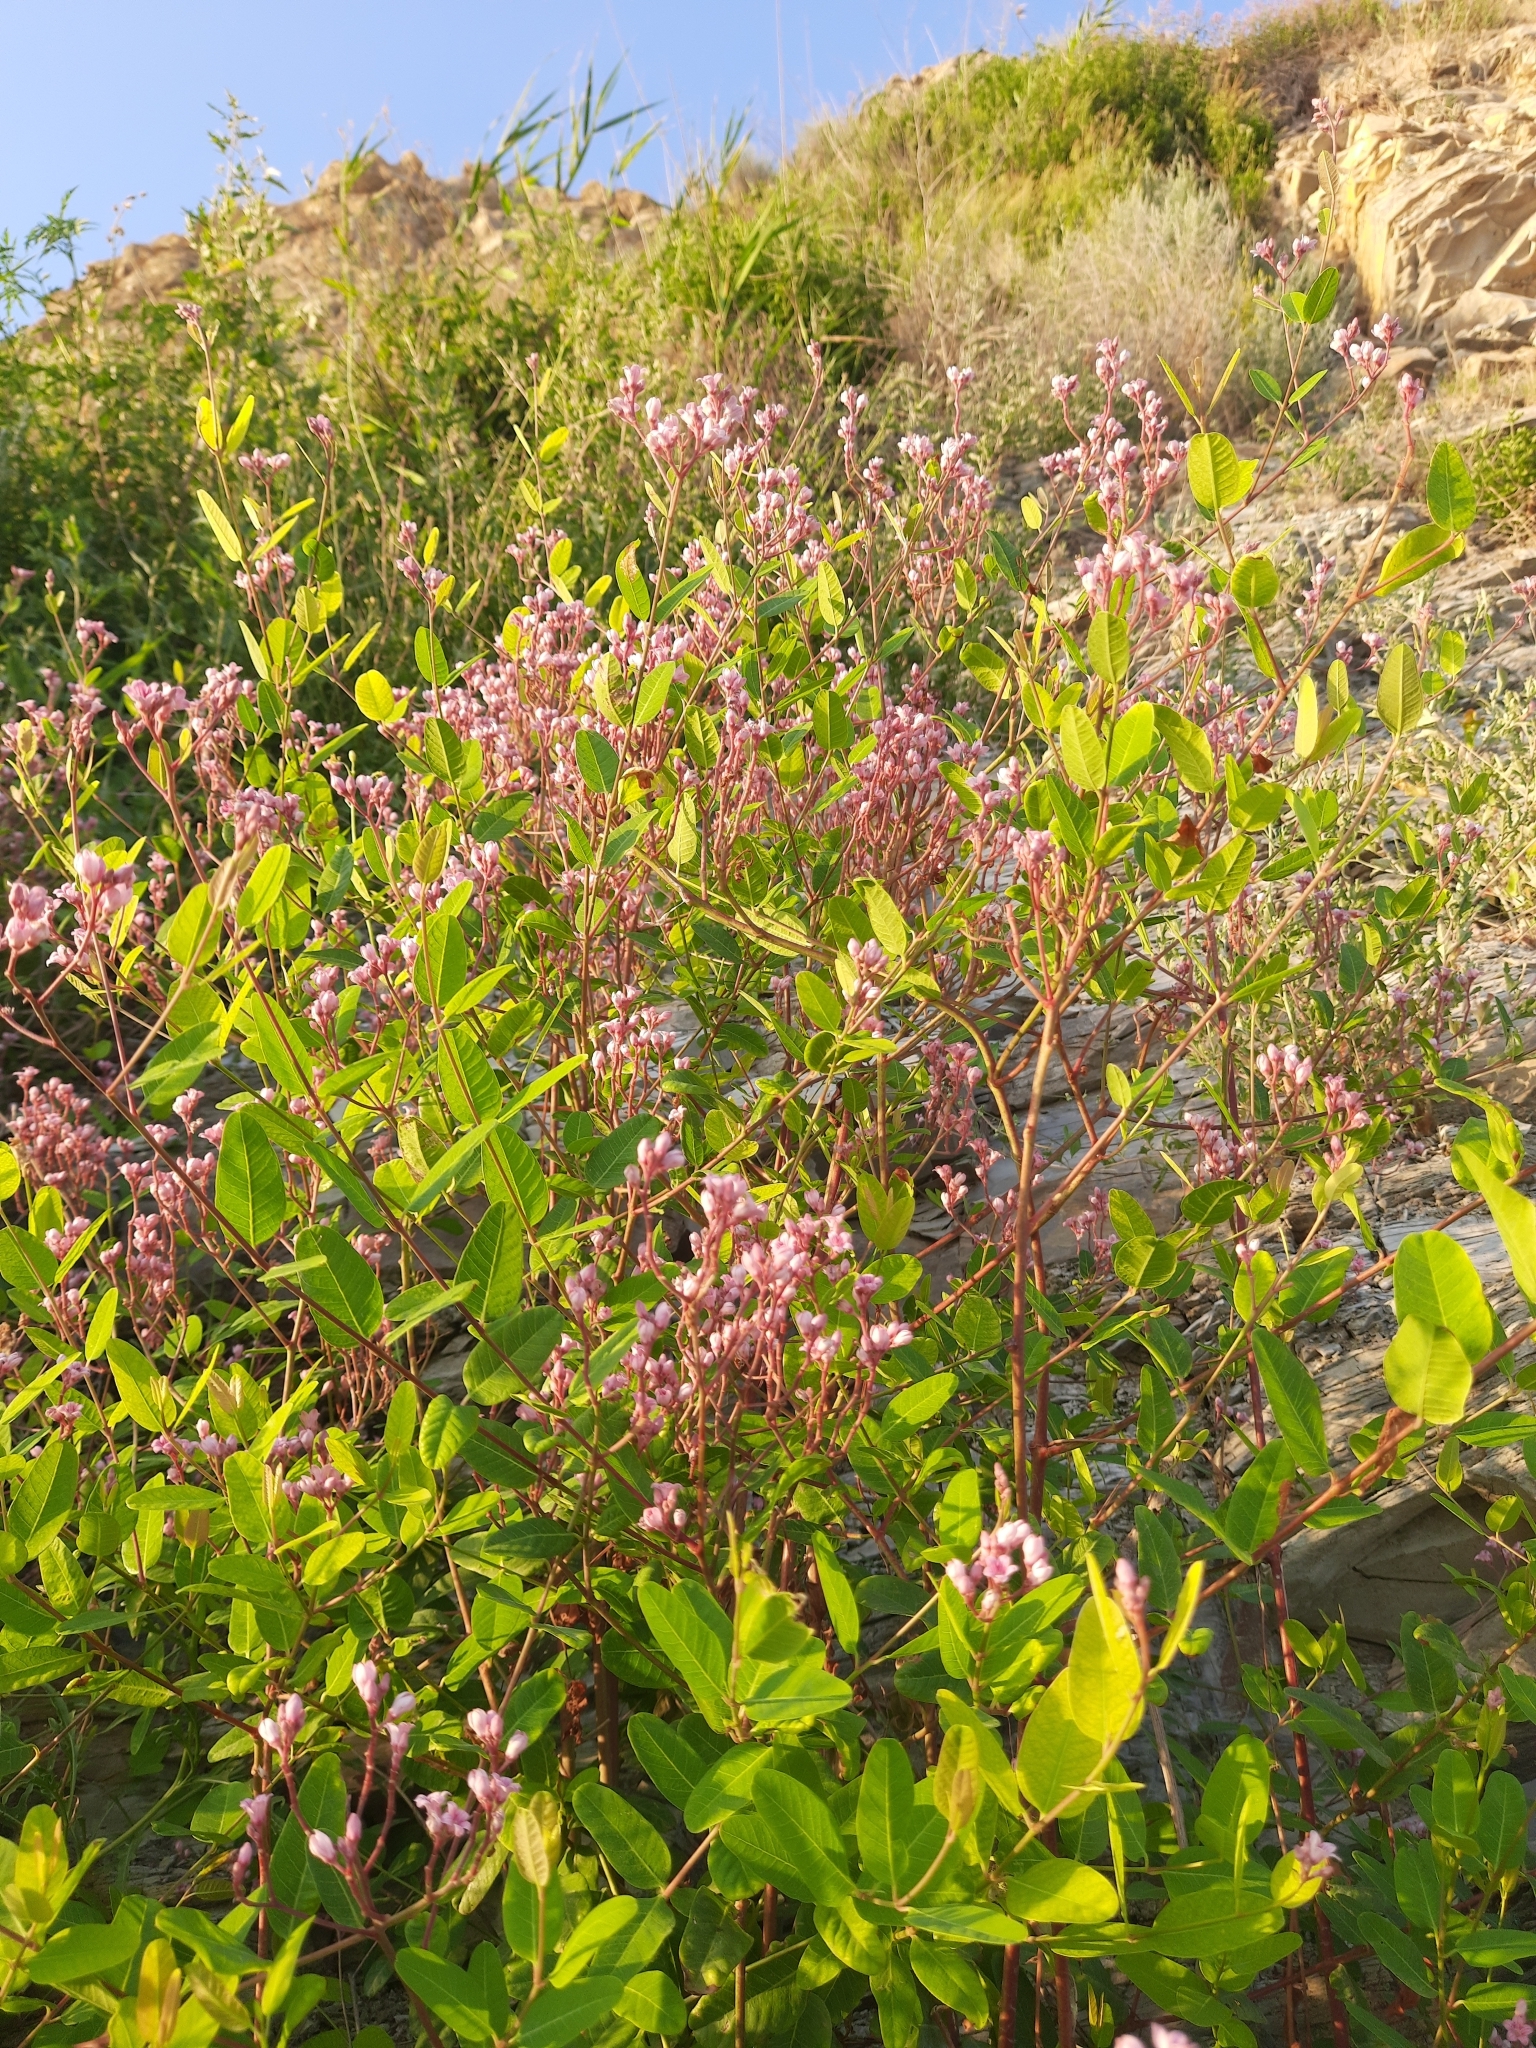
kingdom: Plantae
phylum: Tracheophyta
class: Magnoliopsida
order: Gentianales
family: Apocynaceae
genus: Poacynum
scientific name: Poacynum venetum
